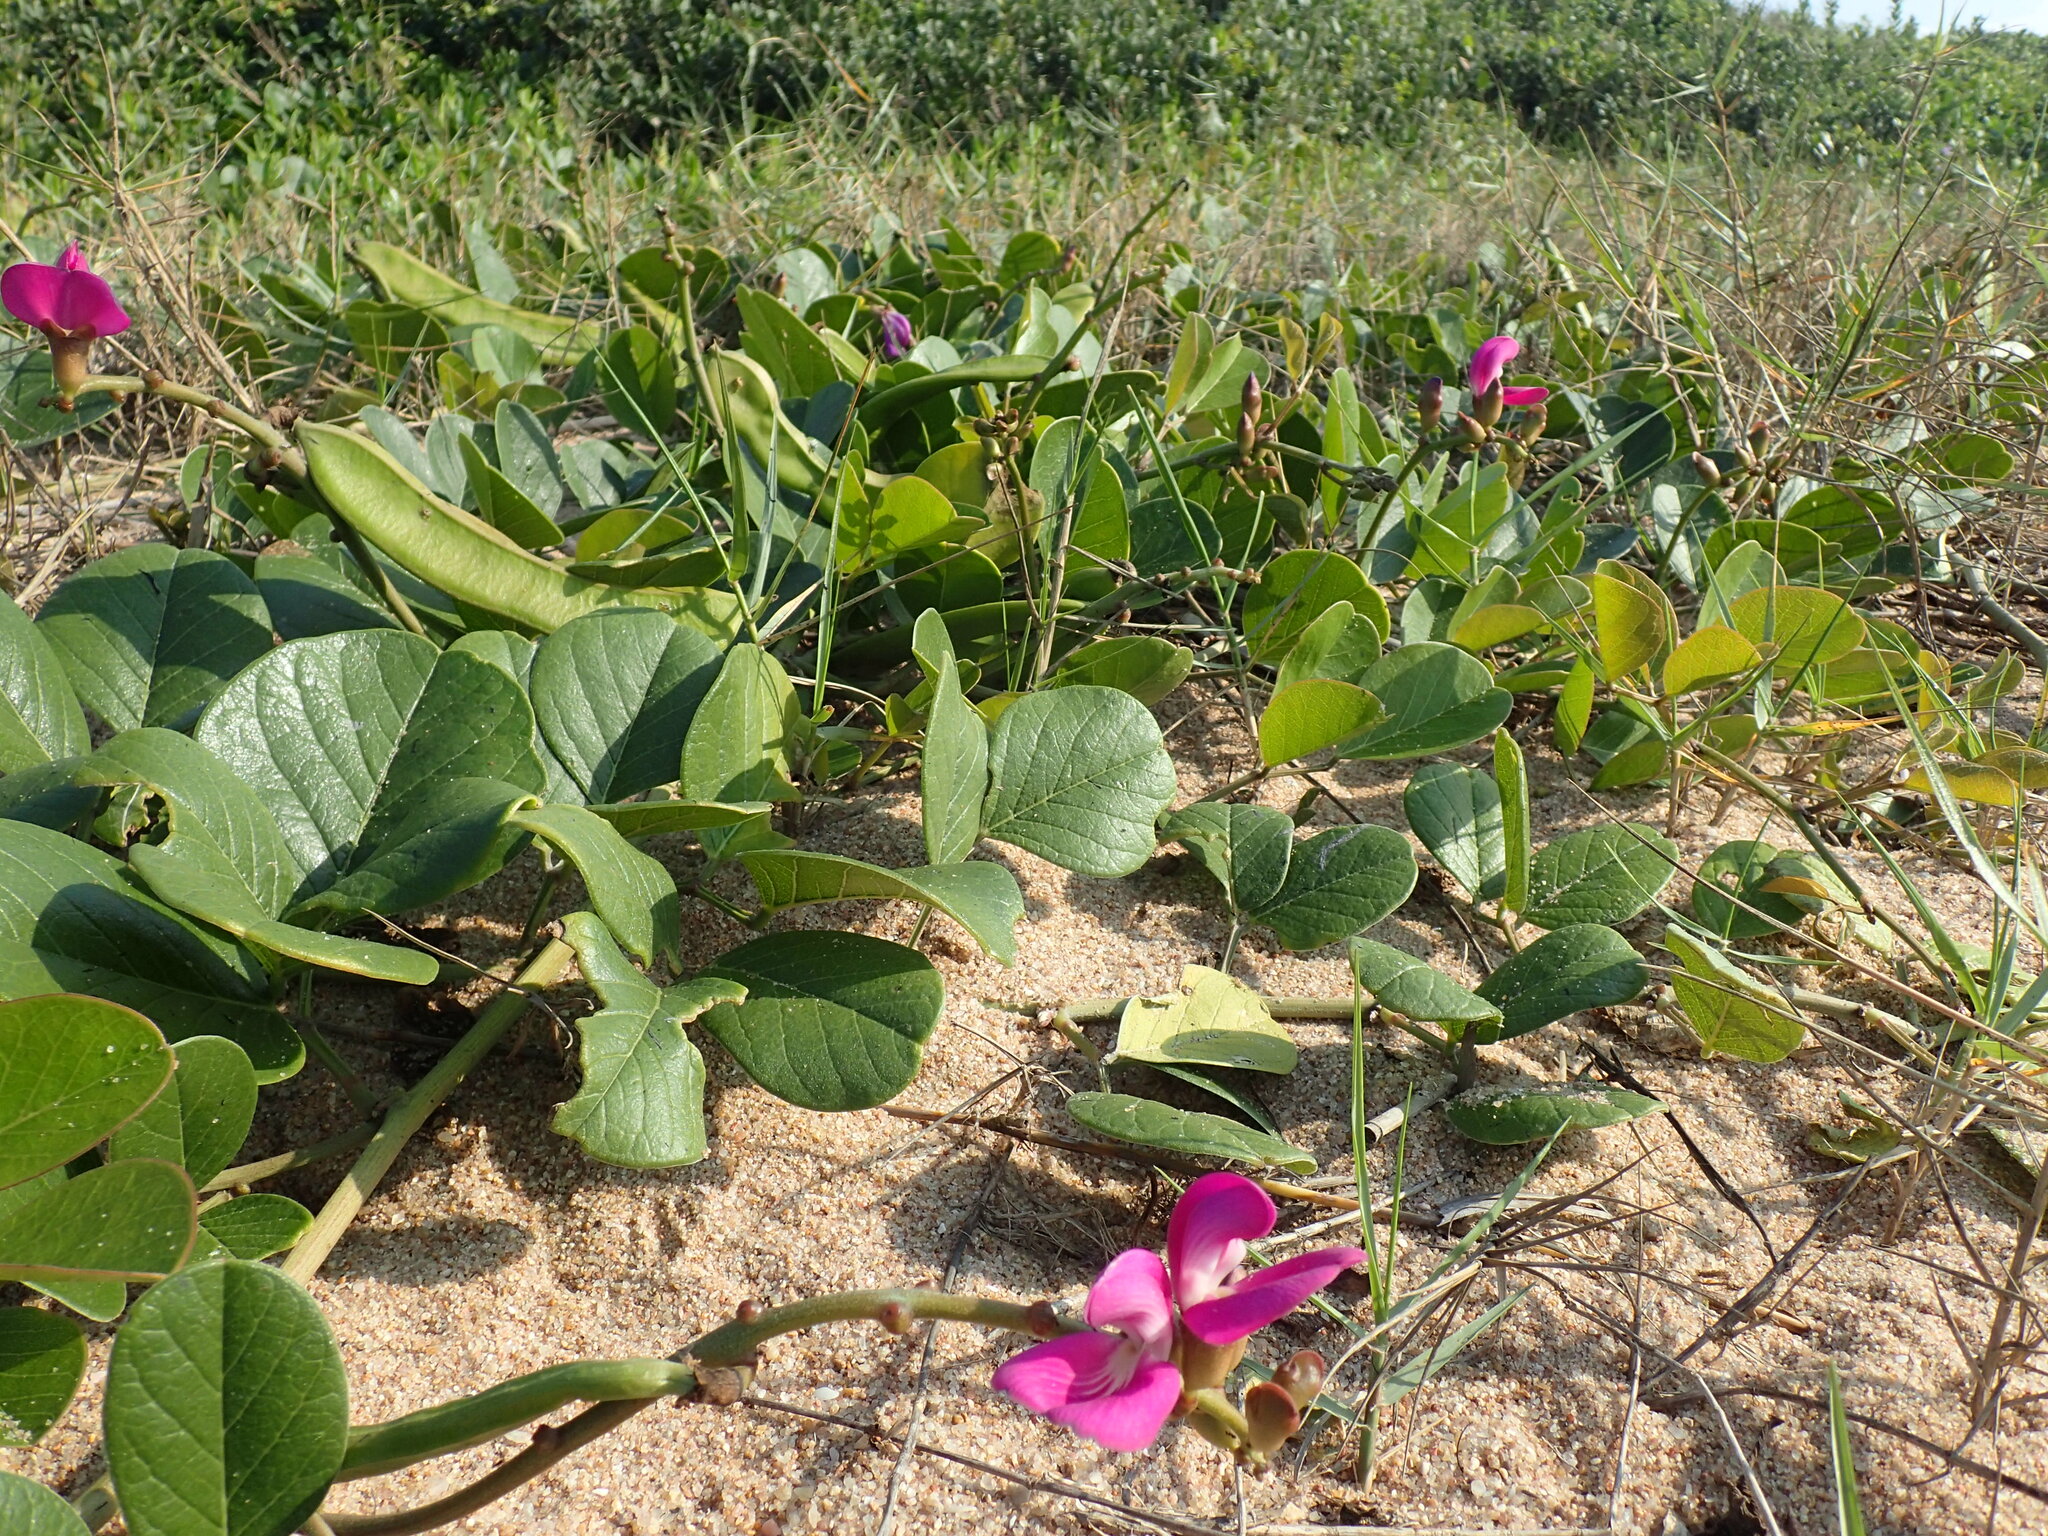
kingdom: Plantae
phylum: Tracheophyta
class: Magnoliopsida
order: Fabales
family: Fabaceae
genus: Canavalia
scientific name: Canavalia rosea
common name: Beach-bean
